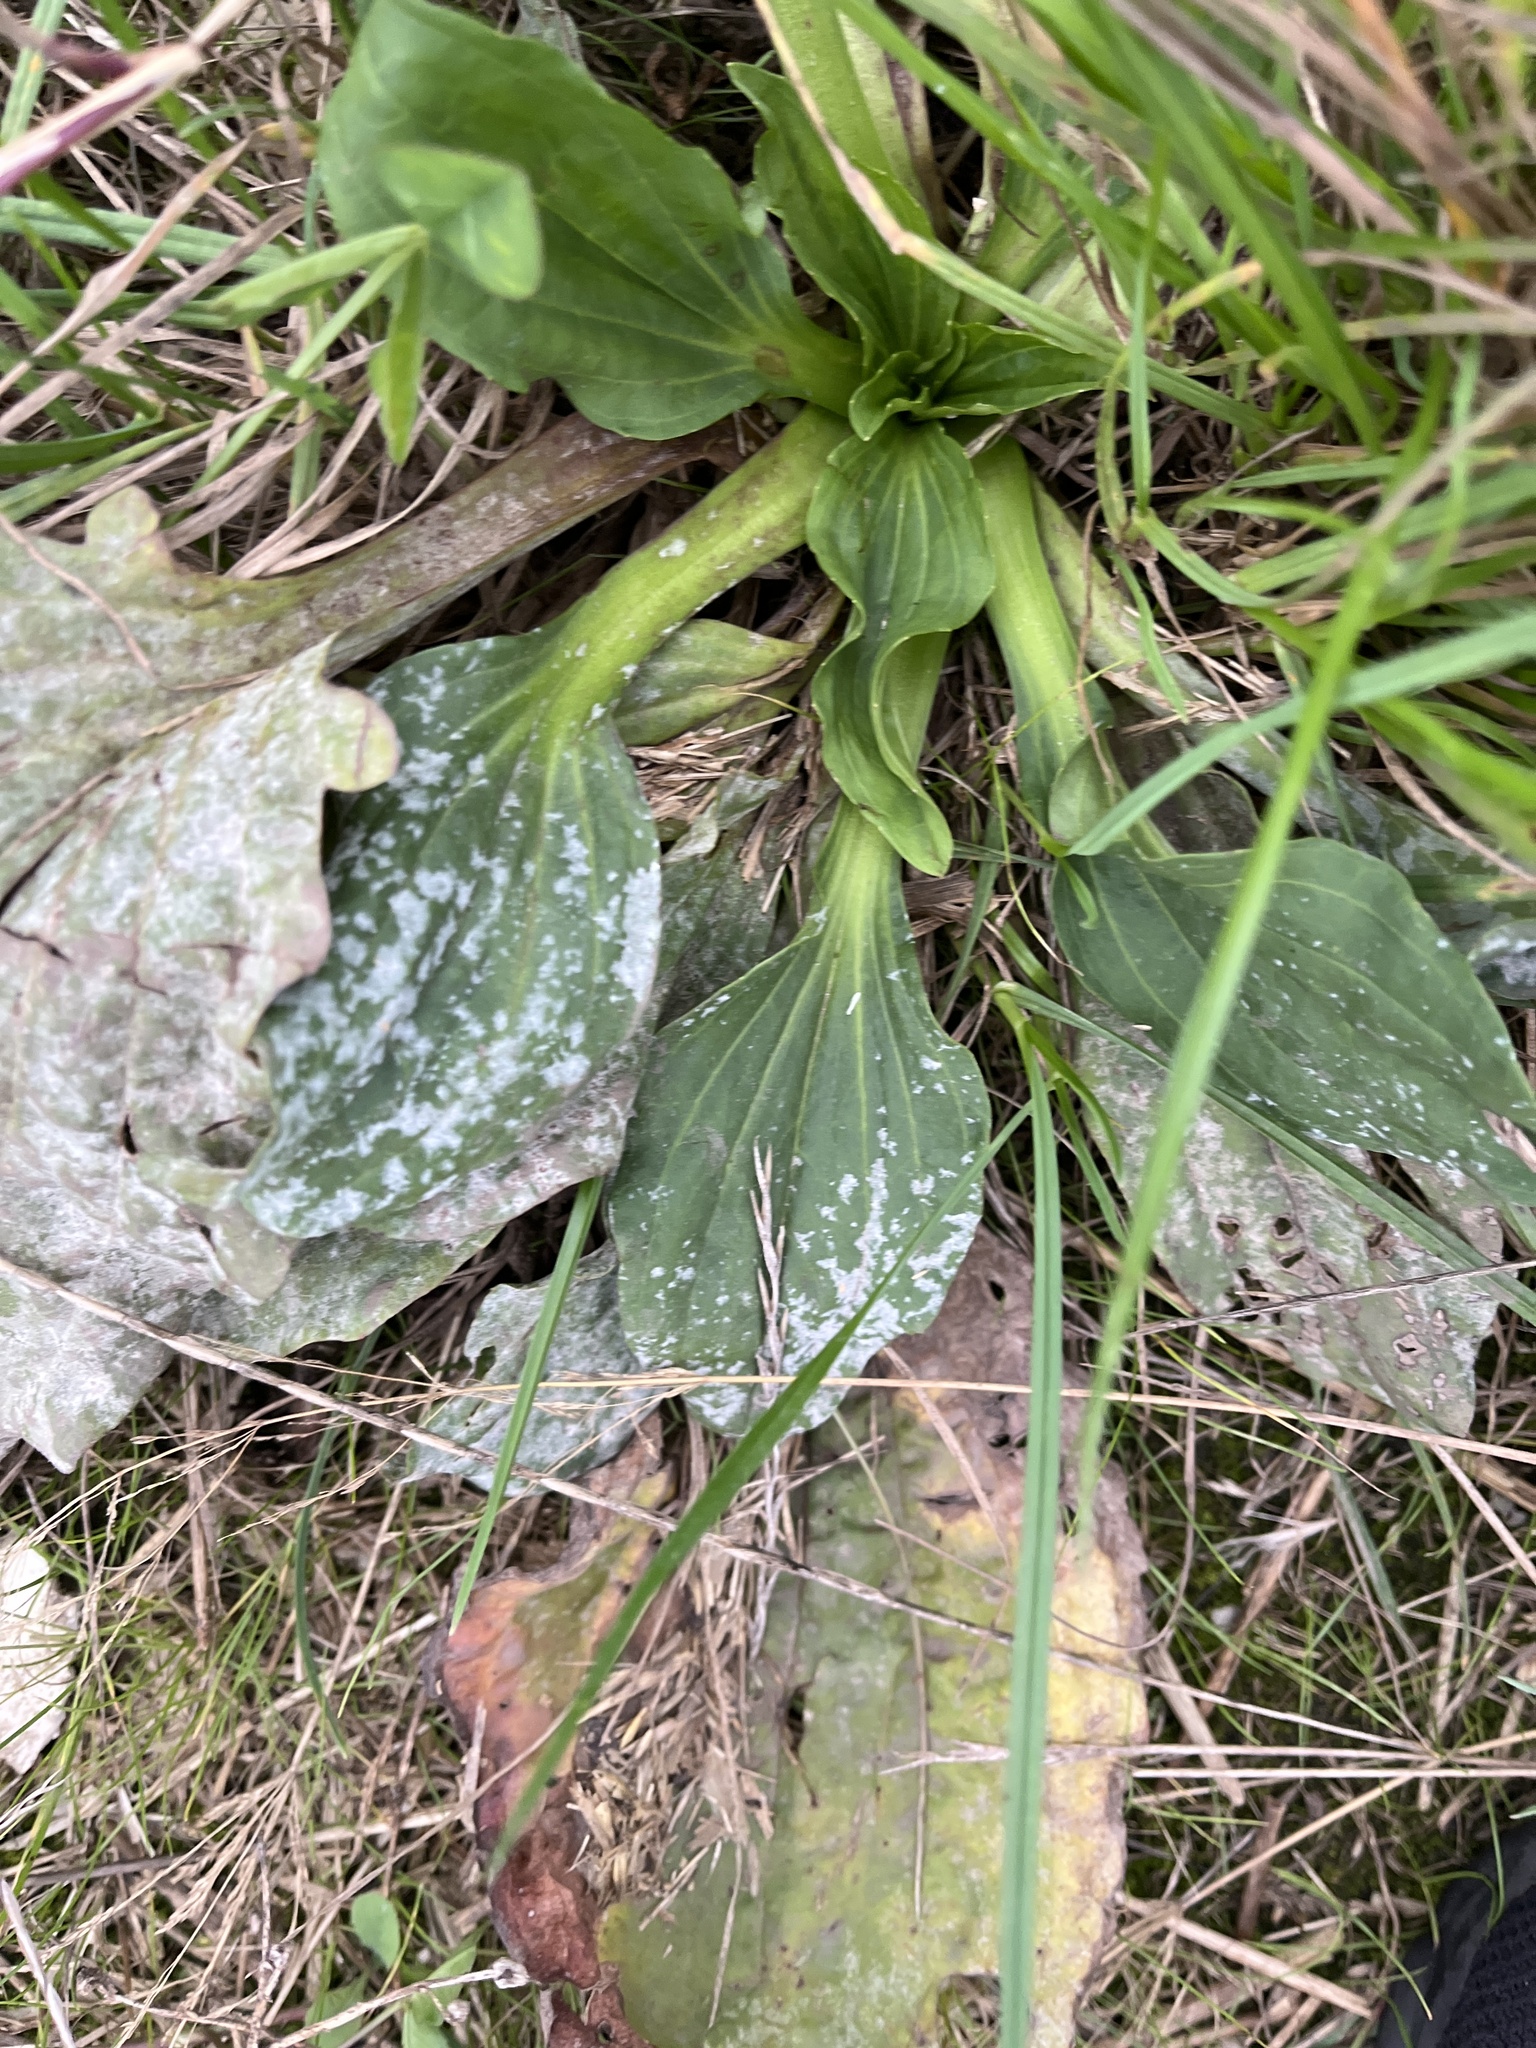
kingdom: Fungi
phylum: Ascomycota
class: Leotiomycetes
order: Helotiales
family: Erysiphaceae
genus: Golovinomyces
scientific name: Golovinomyces sordidus
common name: Plantain mildew
